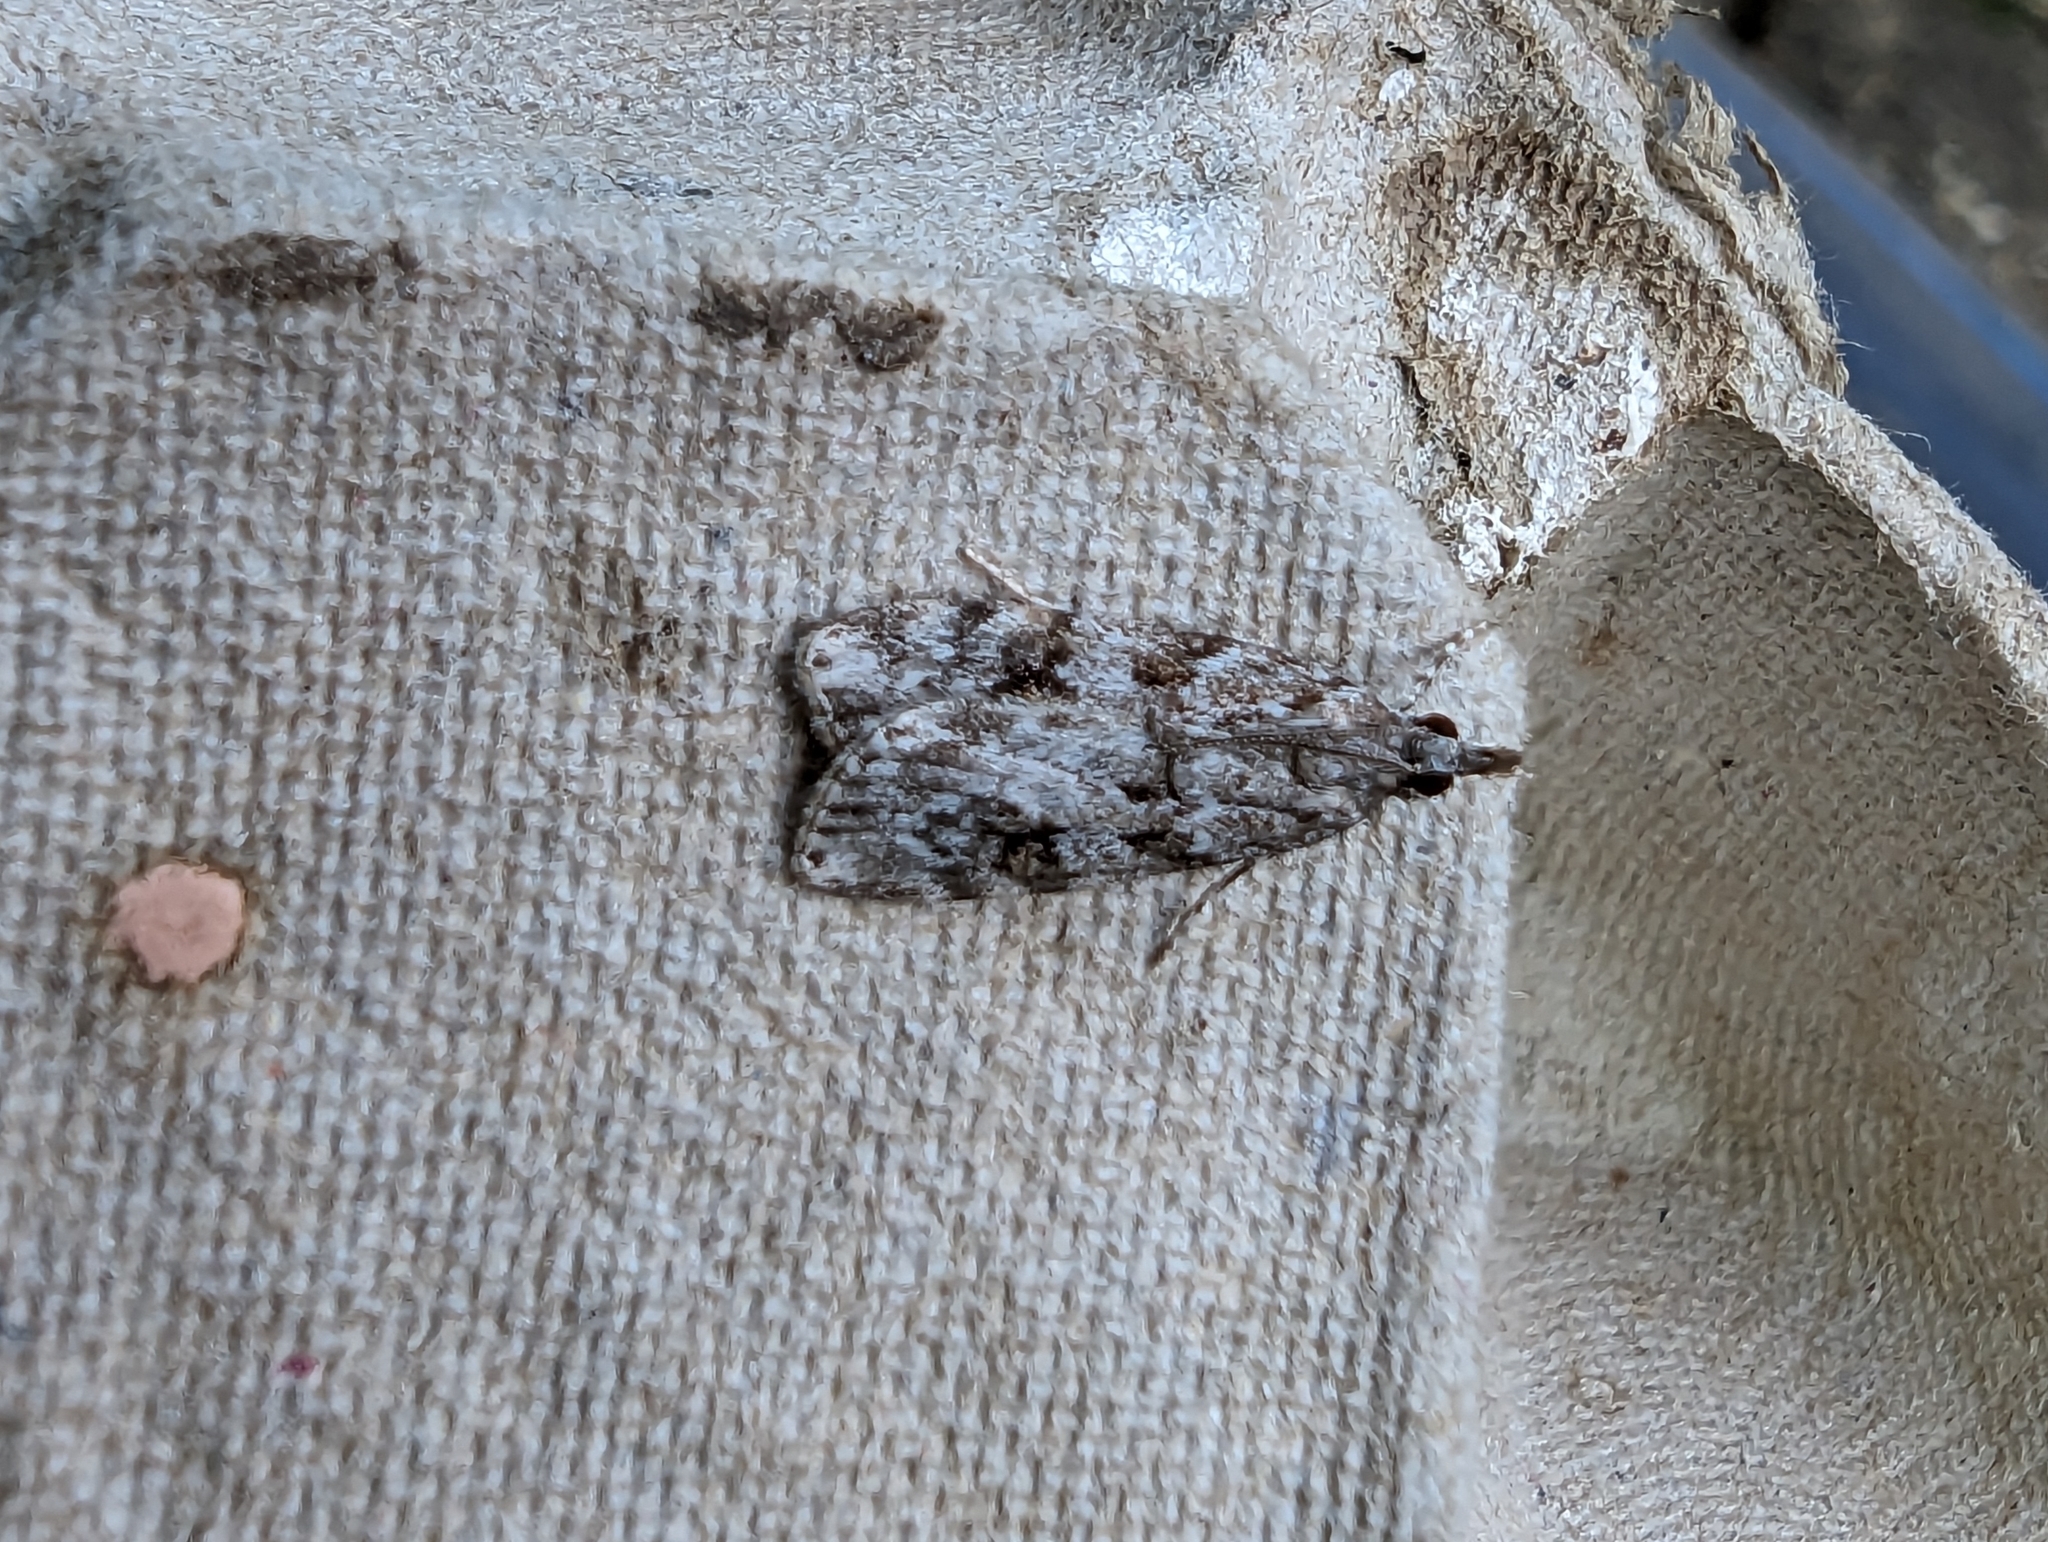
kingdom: Animalia
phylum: Arthropoda
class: Insecta
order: Lepidoptera
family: Crambidae
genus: Scoparia
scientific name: Scoparia pyralella
